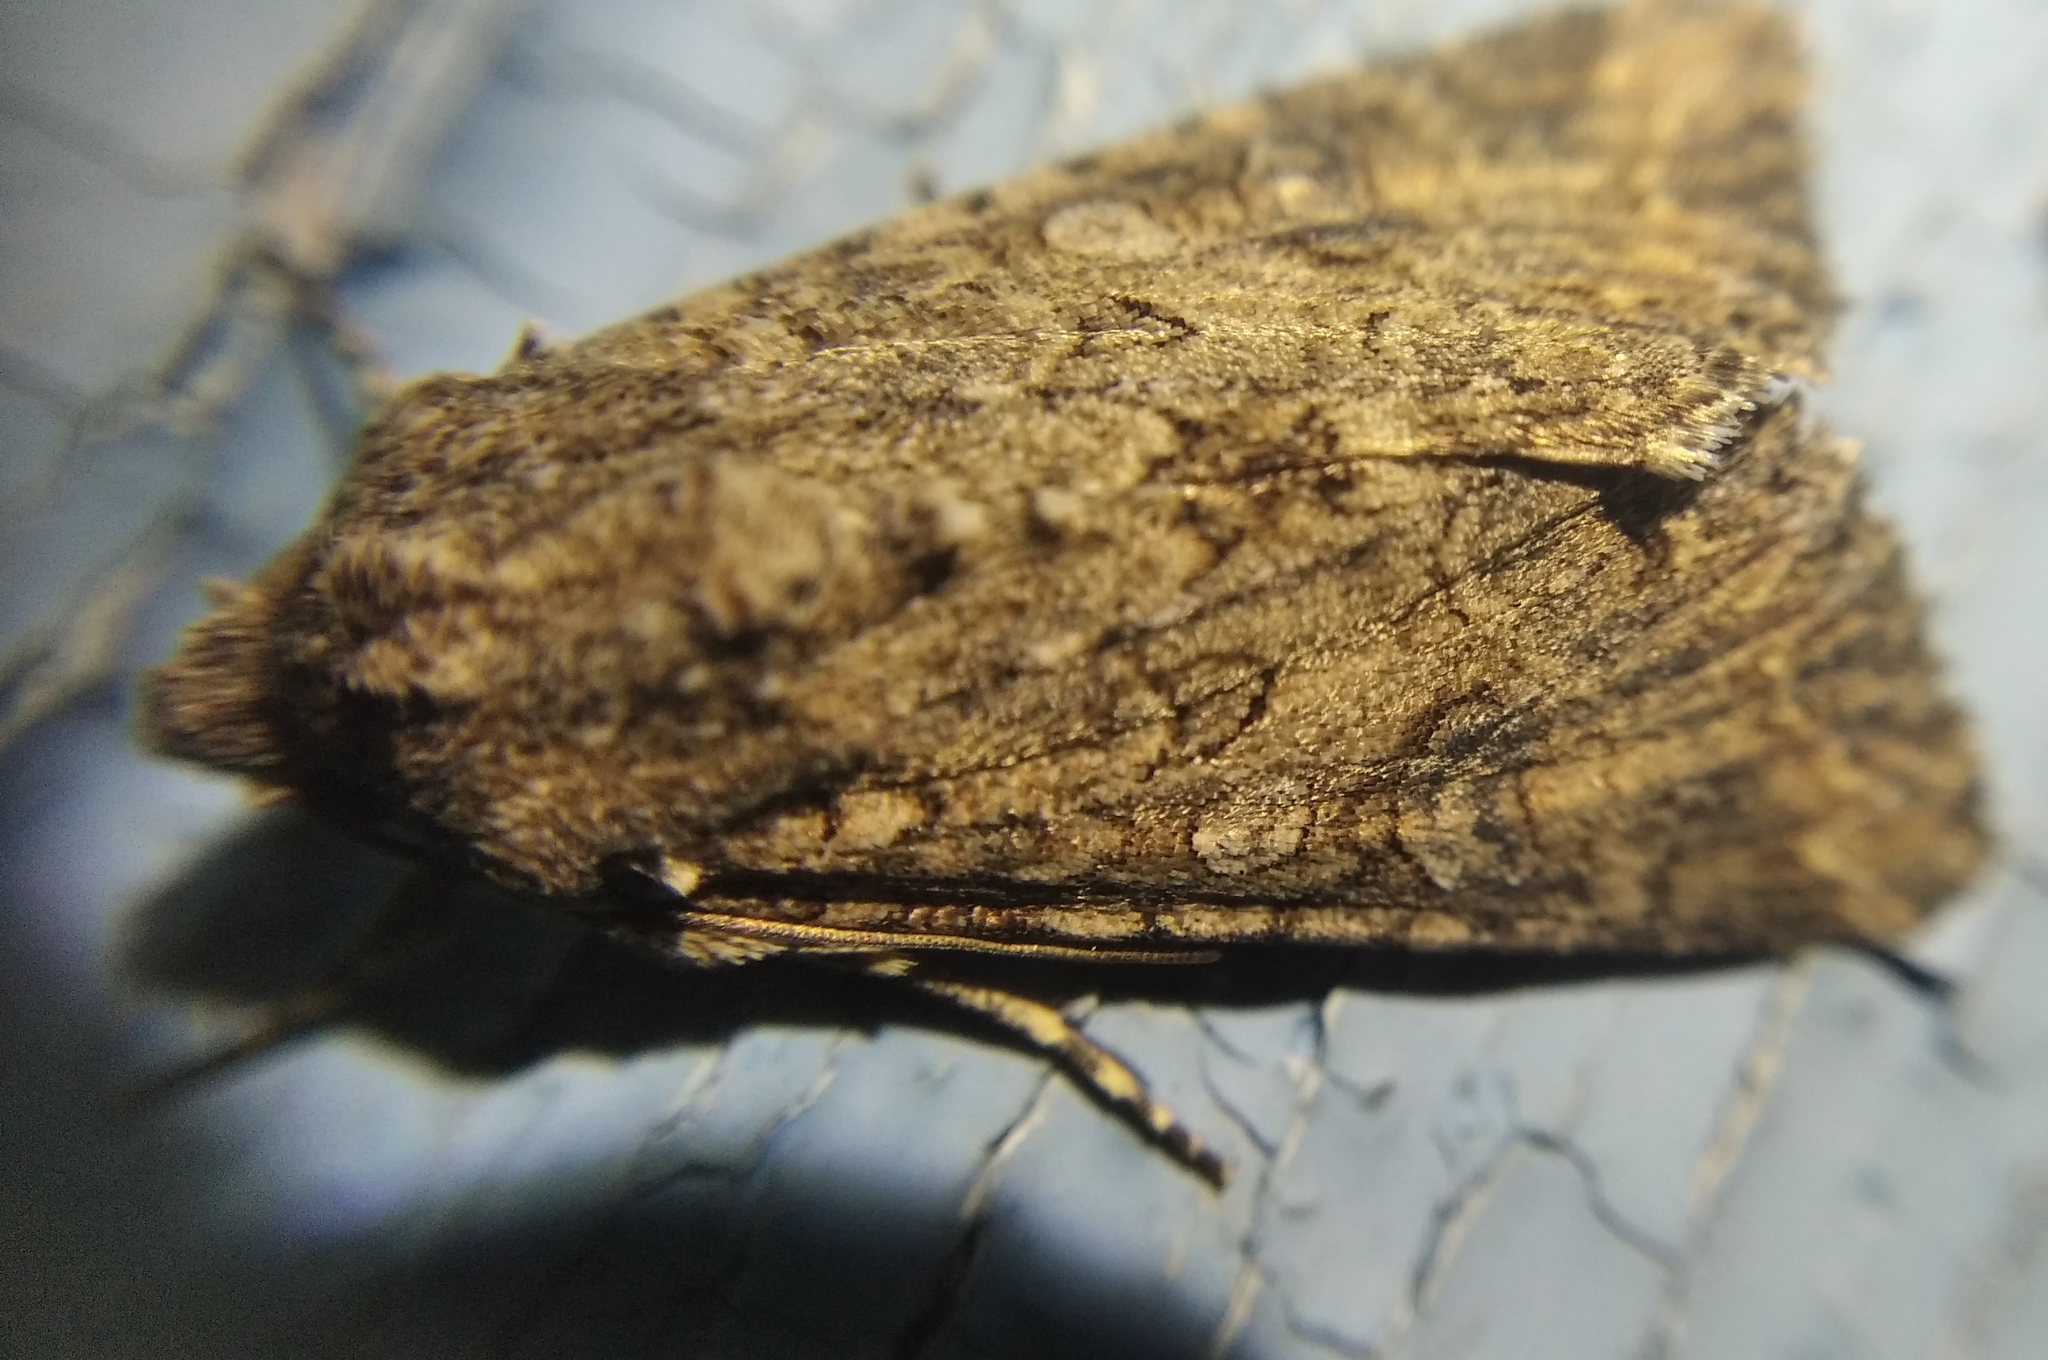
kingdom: Animalia
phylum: Arthropoda
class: Insecta
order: Lepidoptera
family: Noctuidae
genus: Anarta
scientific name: Anarta trifolii
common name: Clover cutworm moth
